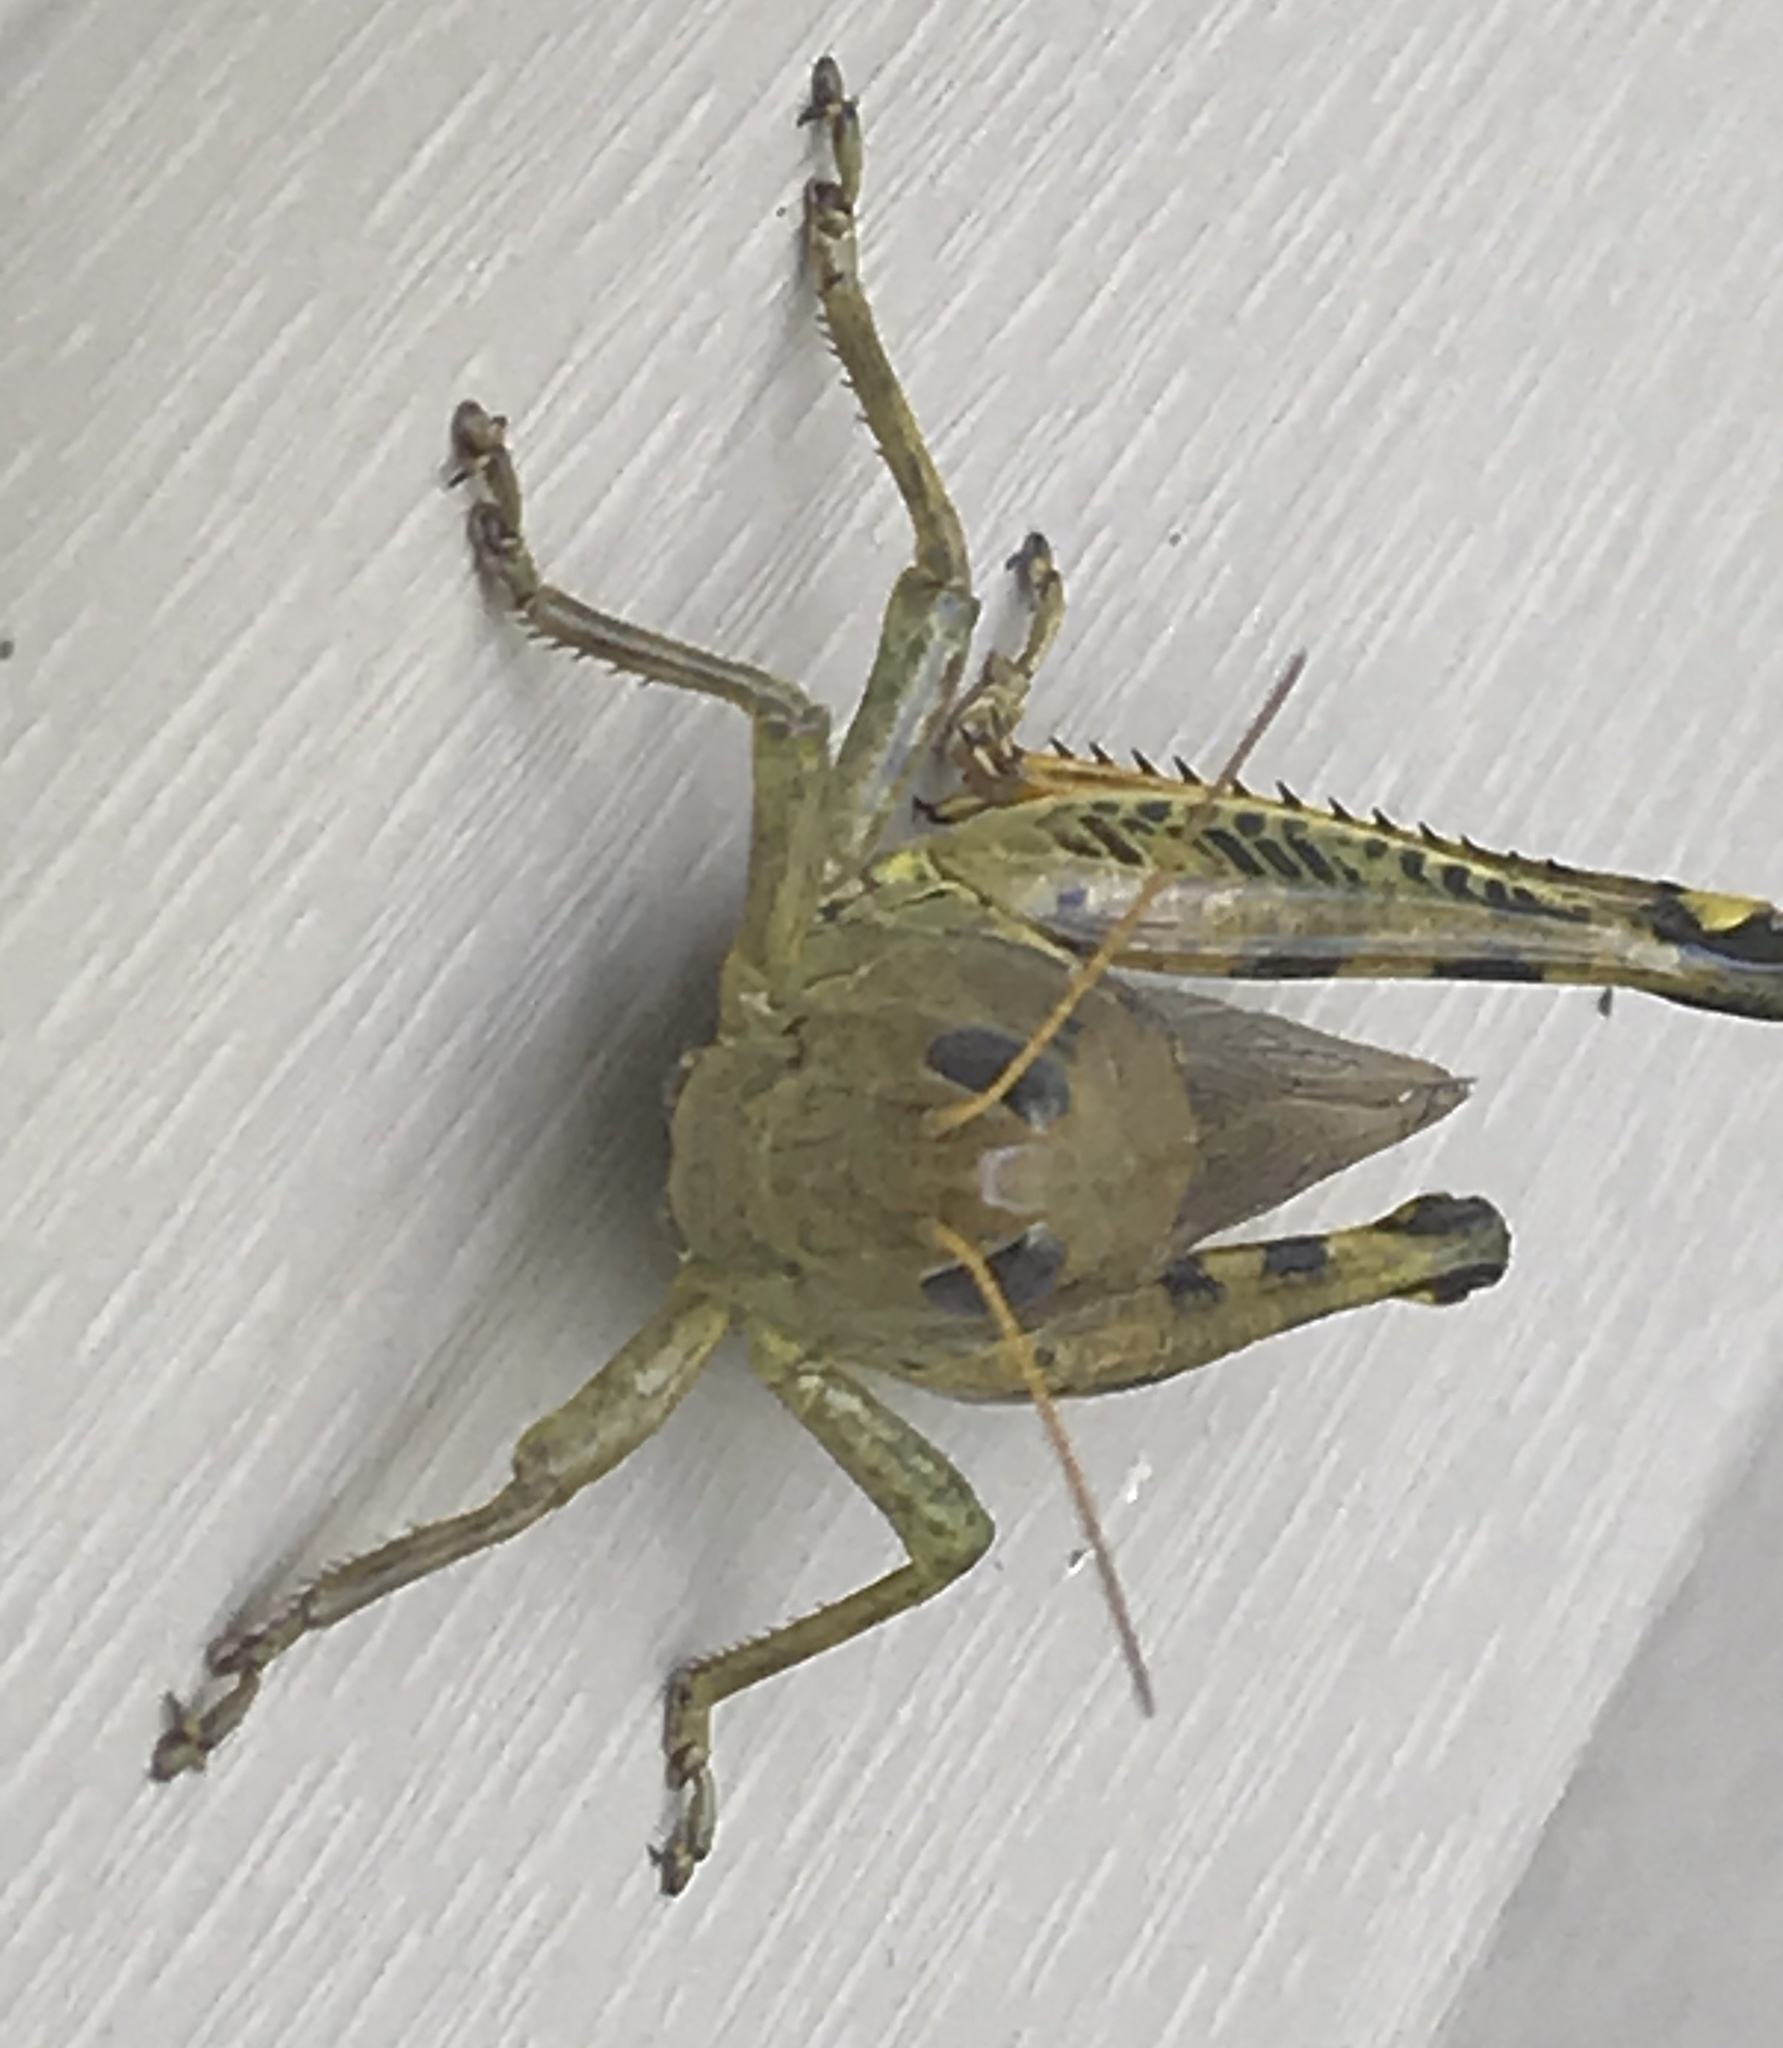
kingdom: Animalia
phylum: Arthropoda
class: Insecta
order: Orthoptera
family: Acrididae
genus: Melanoplus
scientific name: Melanoplus differentialis
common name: Differential grasshopper
